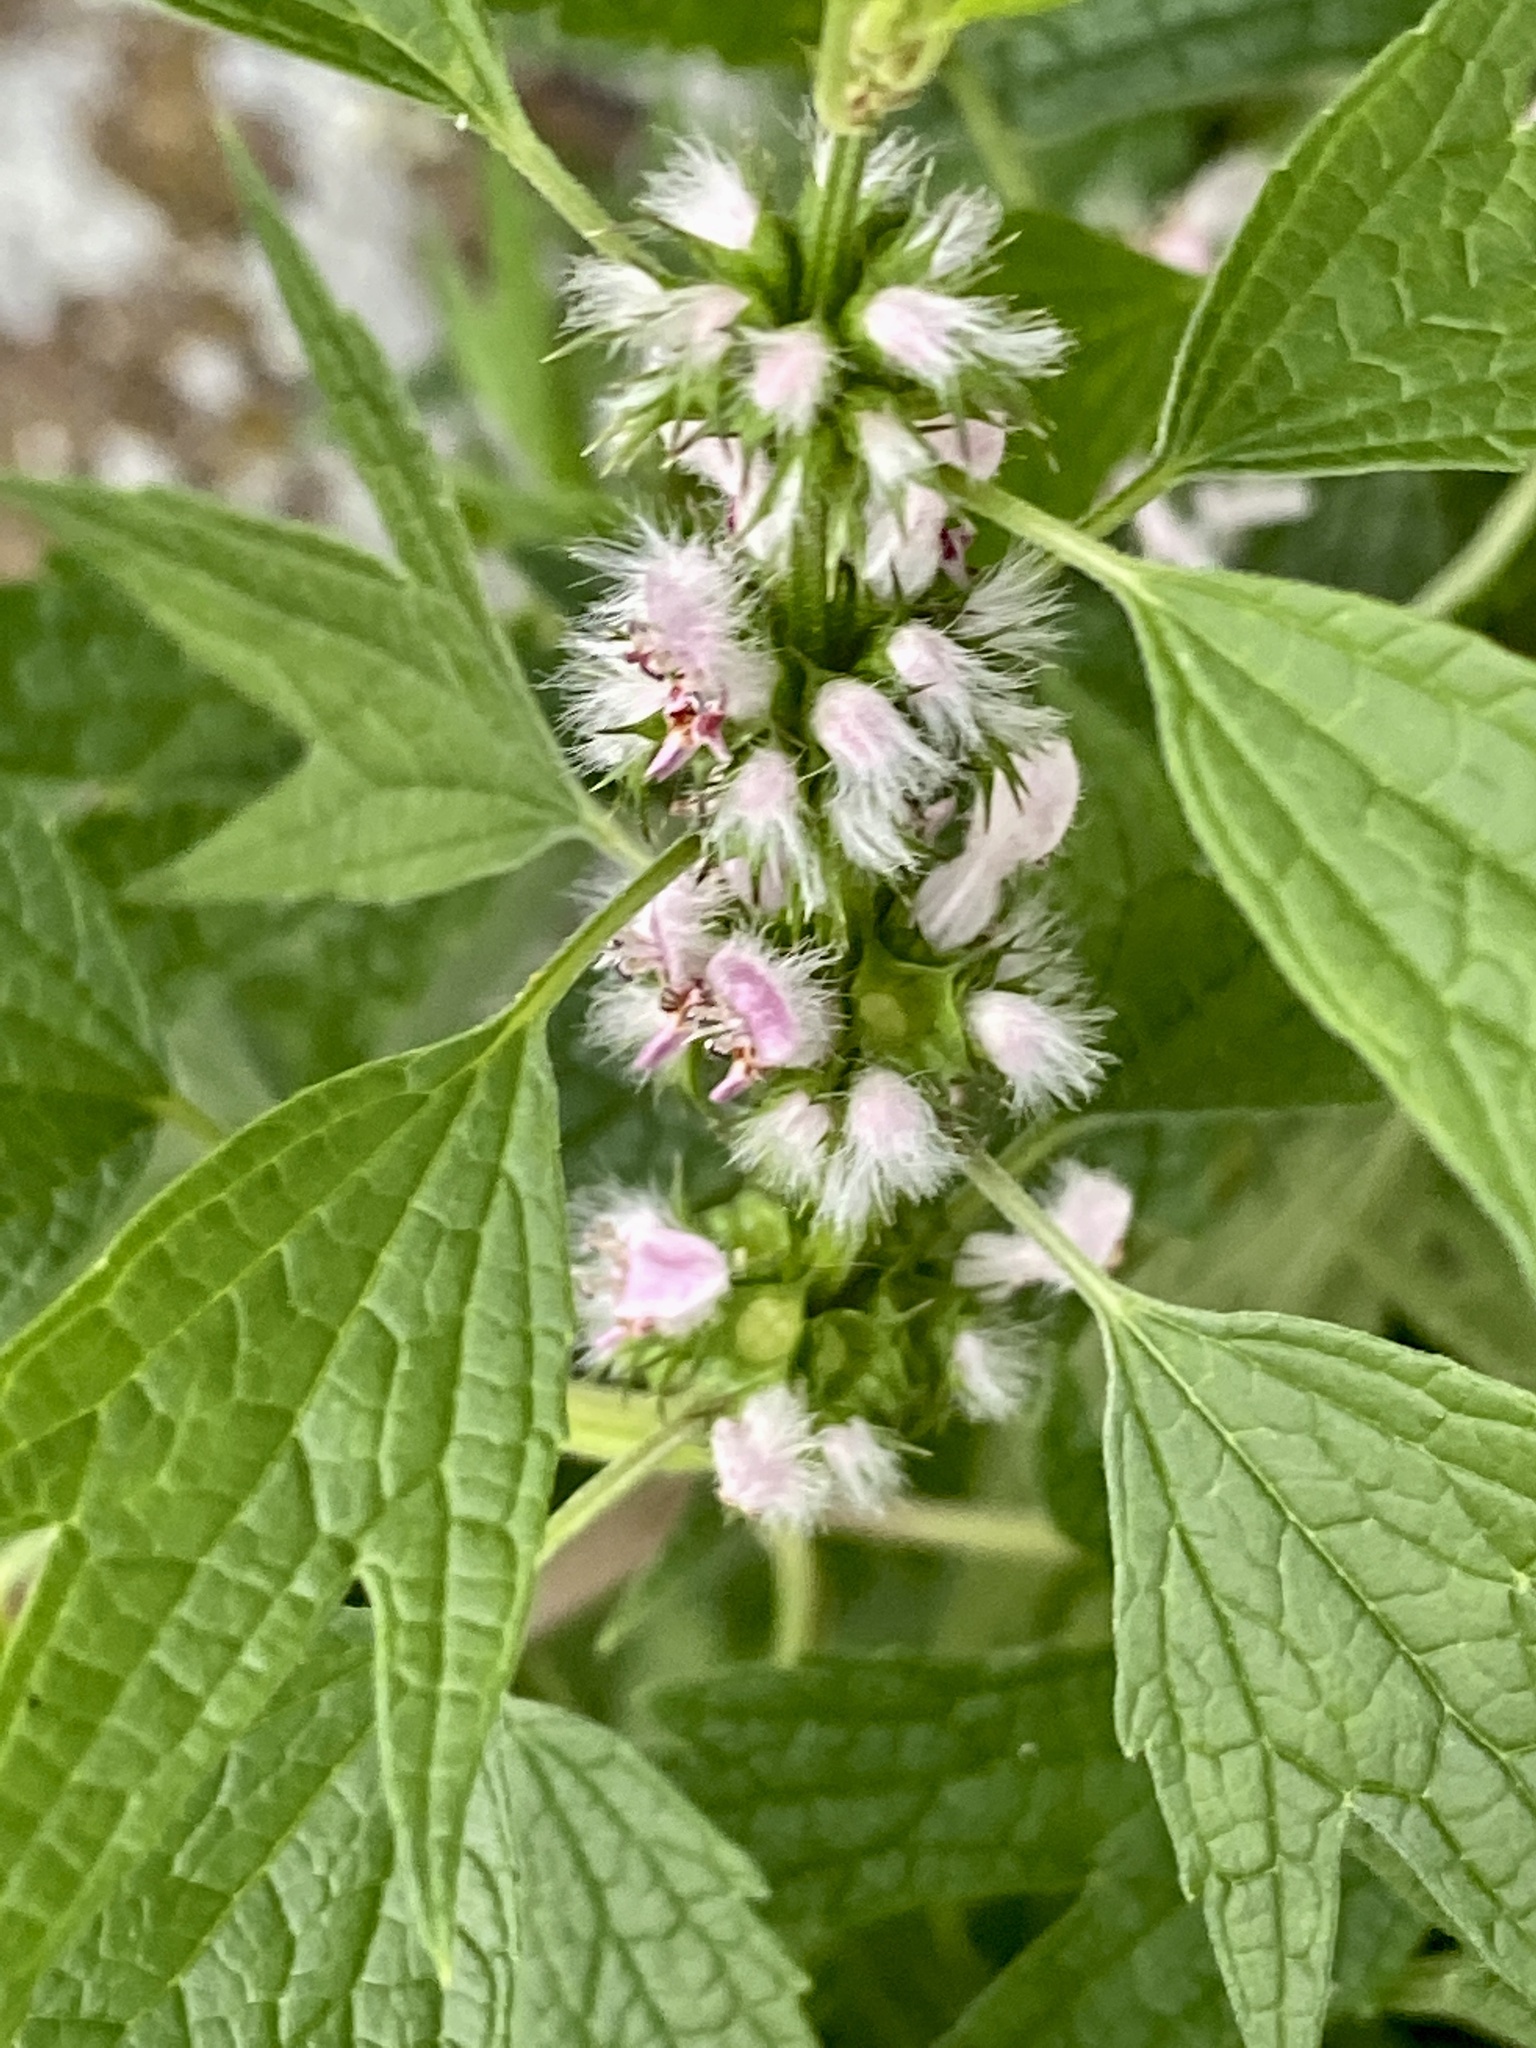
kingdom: Plantae
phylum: Tracheophyta
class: Magnoliopsida
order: Lamiales
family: Lamiaceae
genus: Leonurus
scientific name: Leonurus cardiaca
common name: Motherwort
